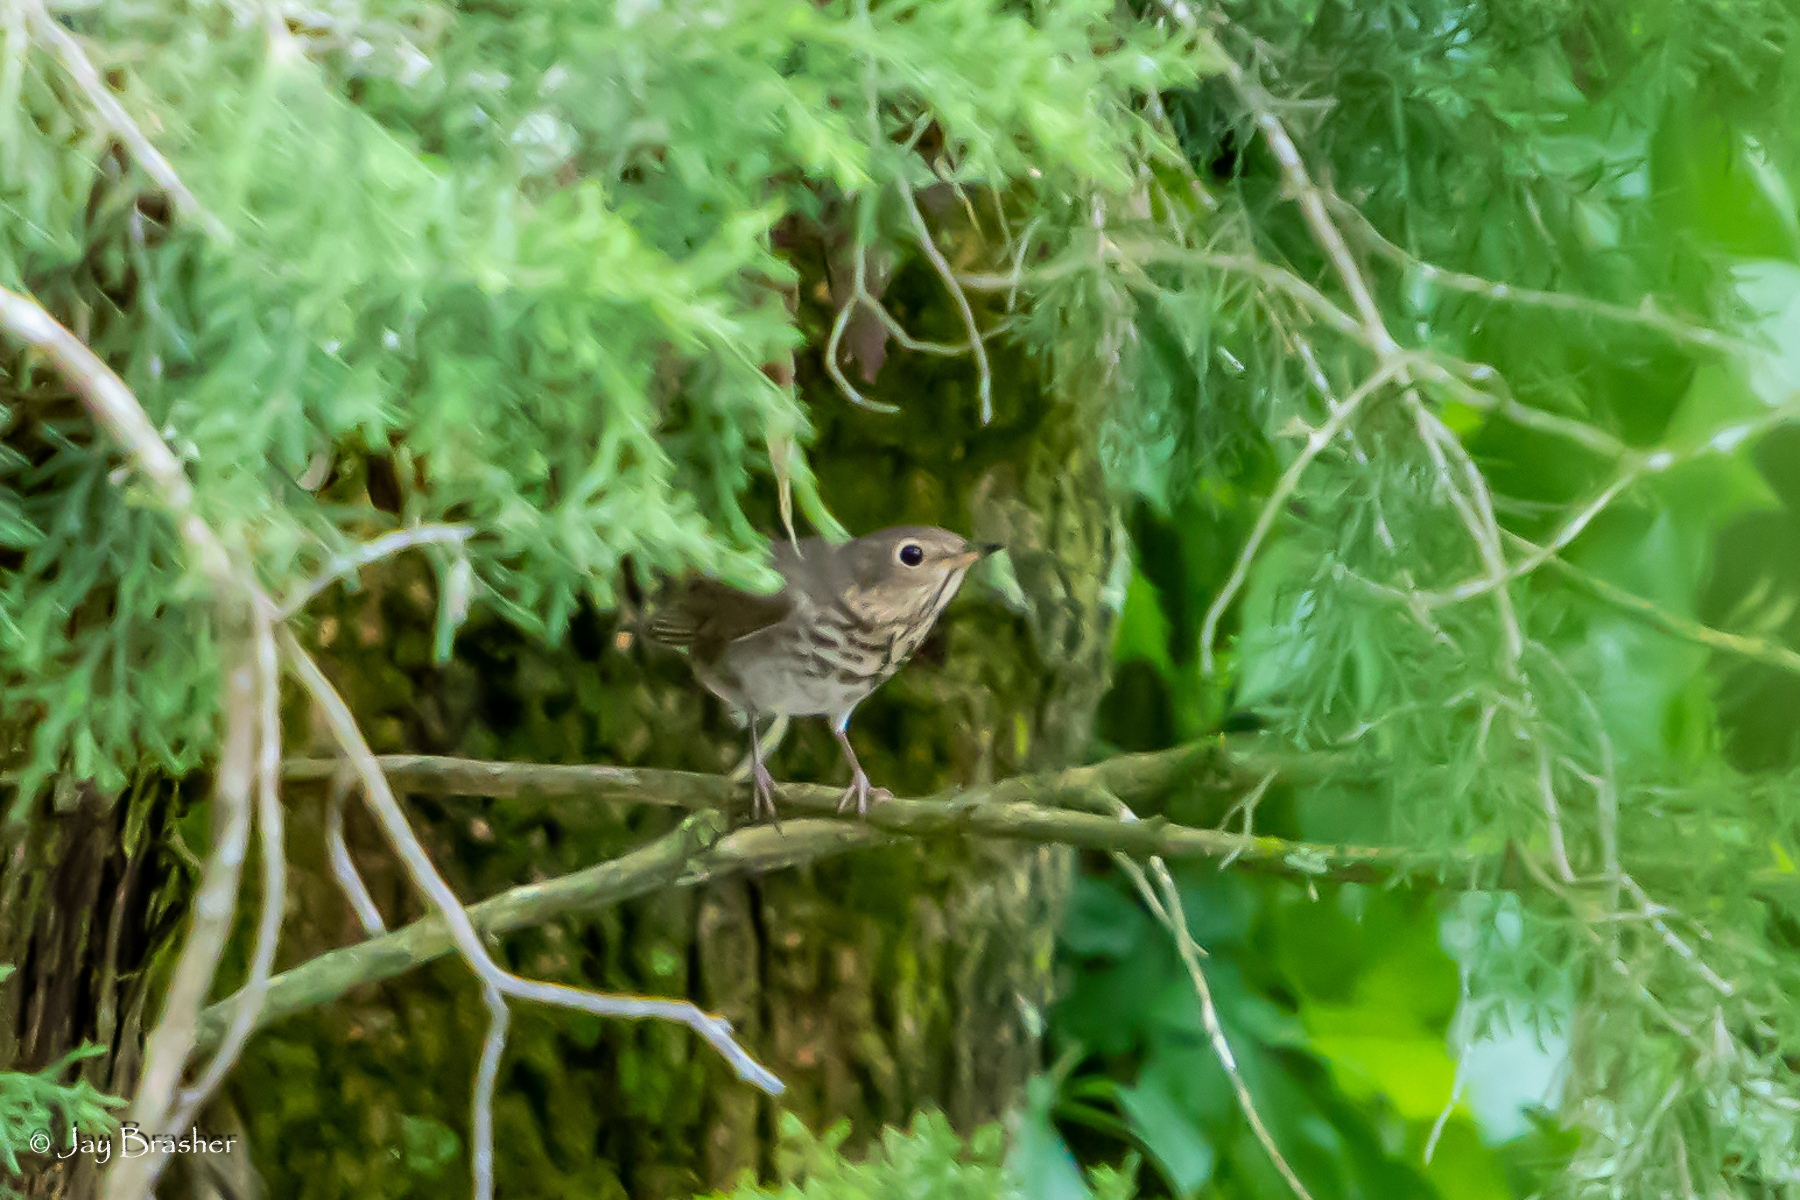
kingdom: Animalia
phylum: Chordata
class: Aves
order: Passeriformes
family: Turdidae
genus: Catharus
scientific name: Catharus ustulatus
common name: Swainson's thrush
